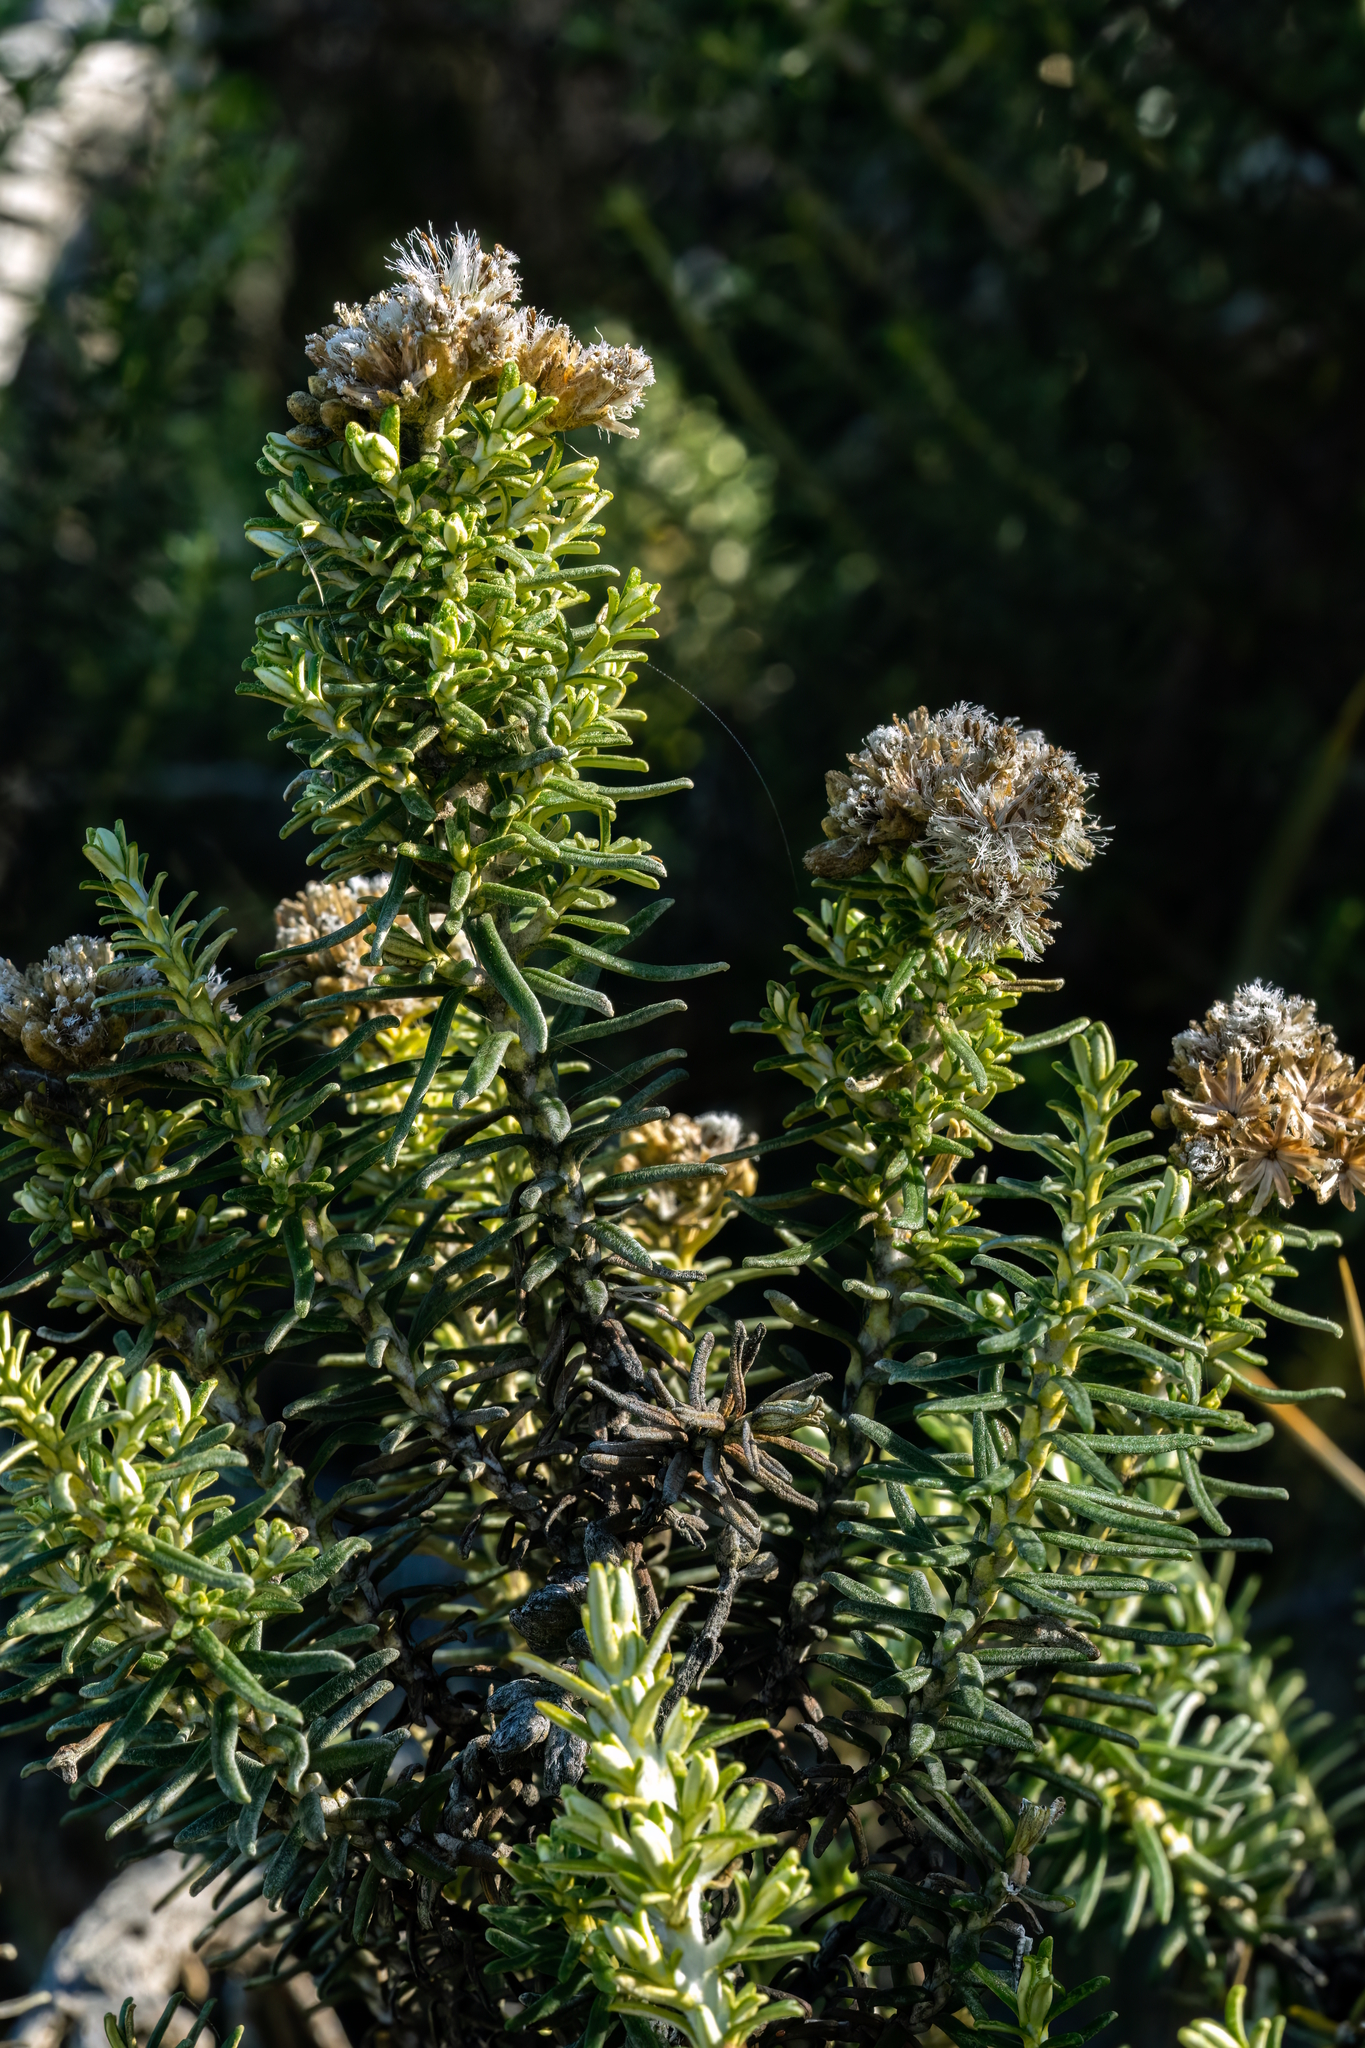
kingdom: Plantae
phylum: Tracheophyta
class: Magnoliopsida
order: Asterales
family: Asteraceae
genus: Ozothamnus
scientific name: Ozothamnus cinereus
